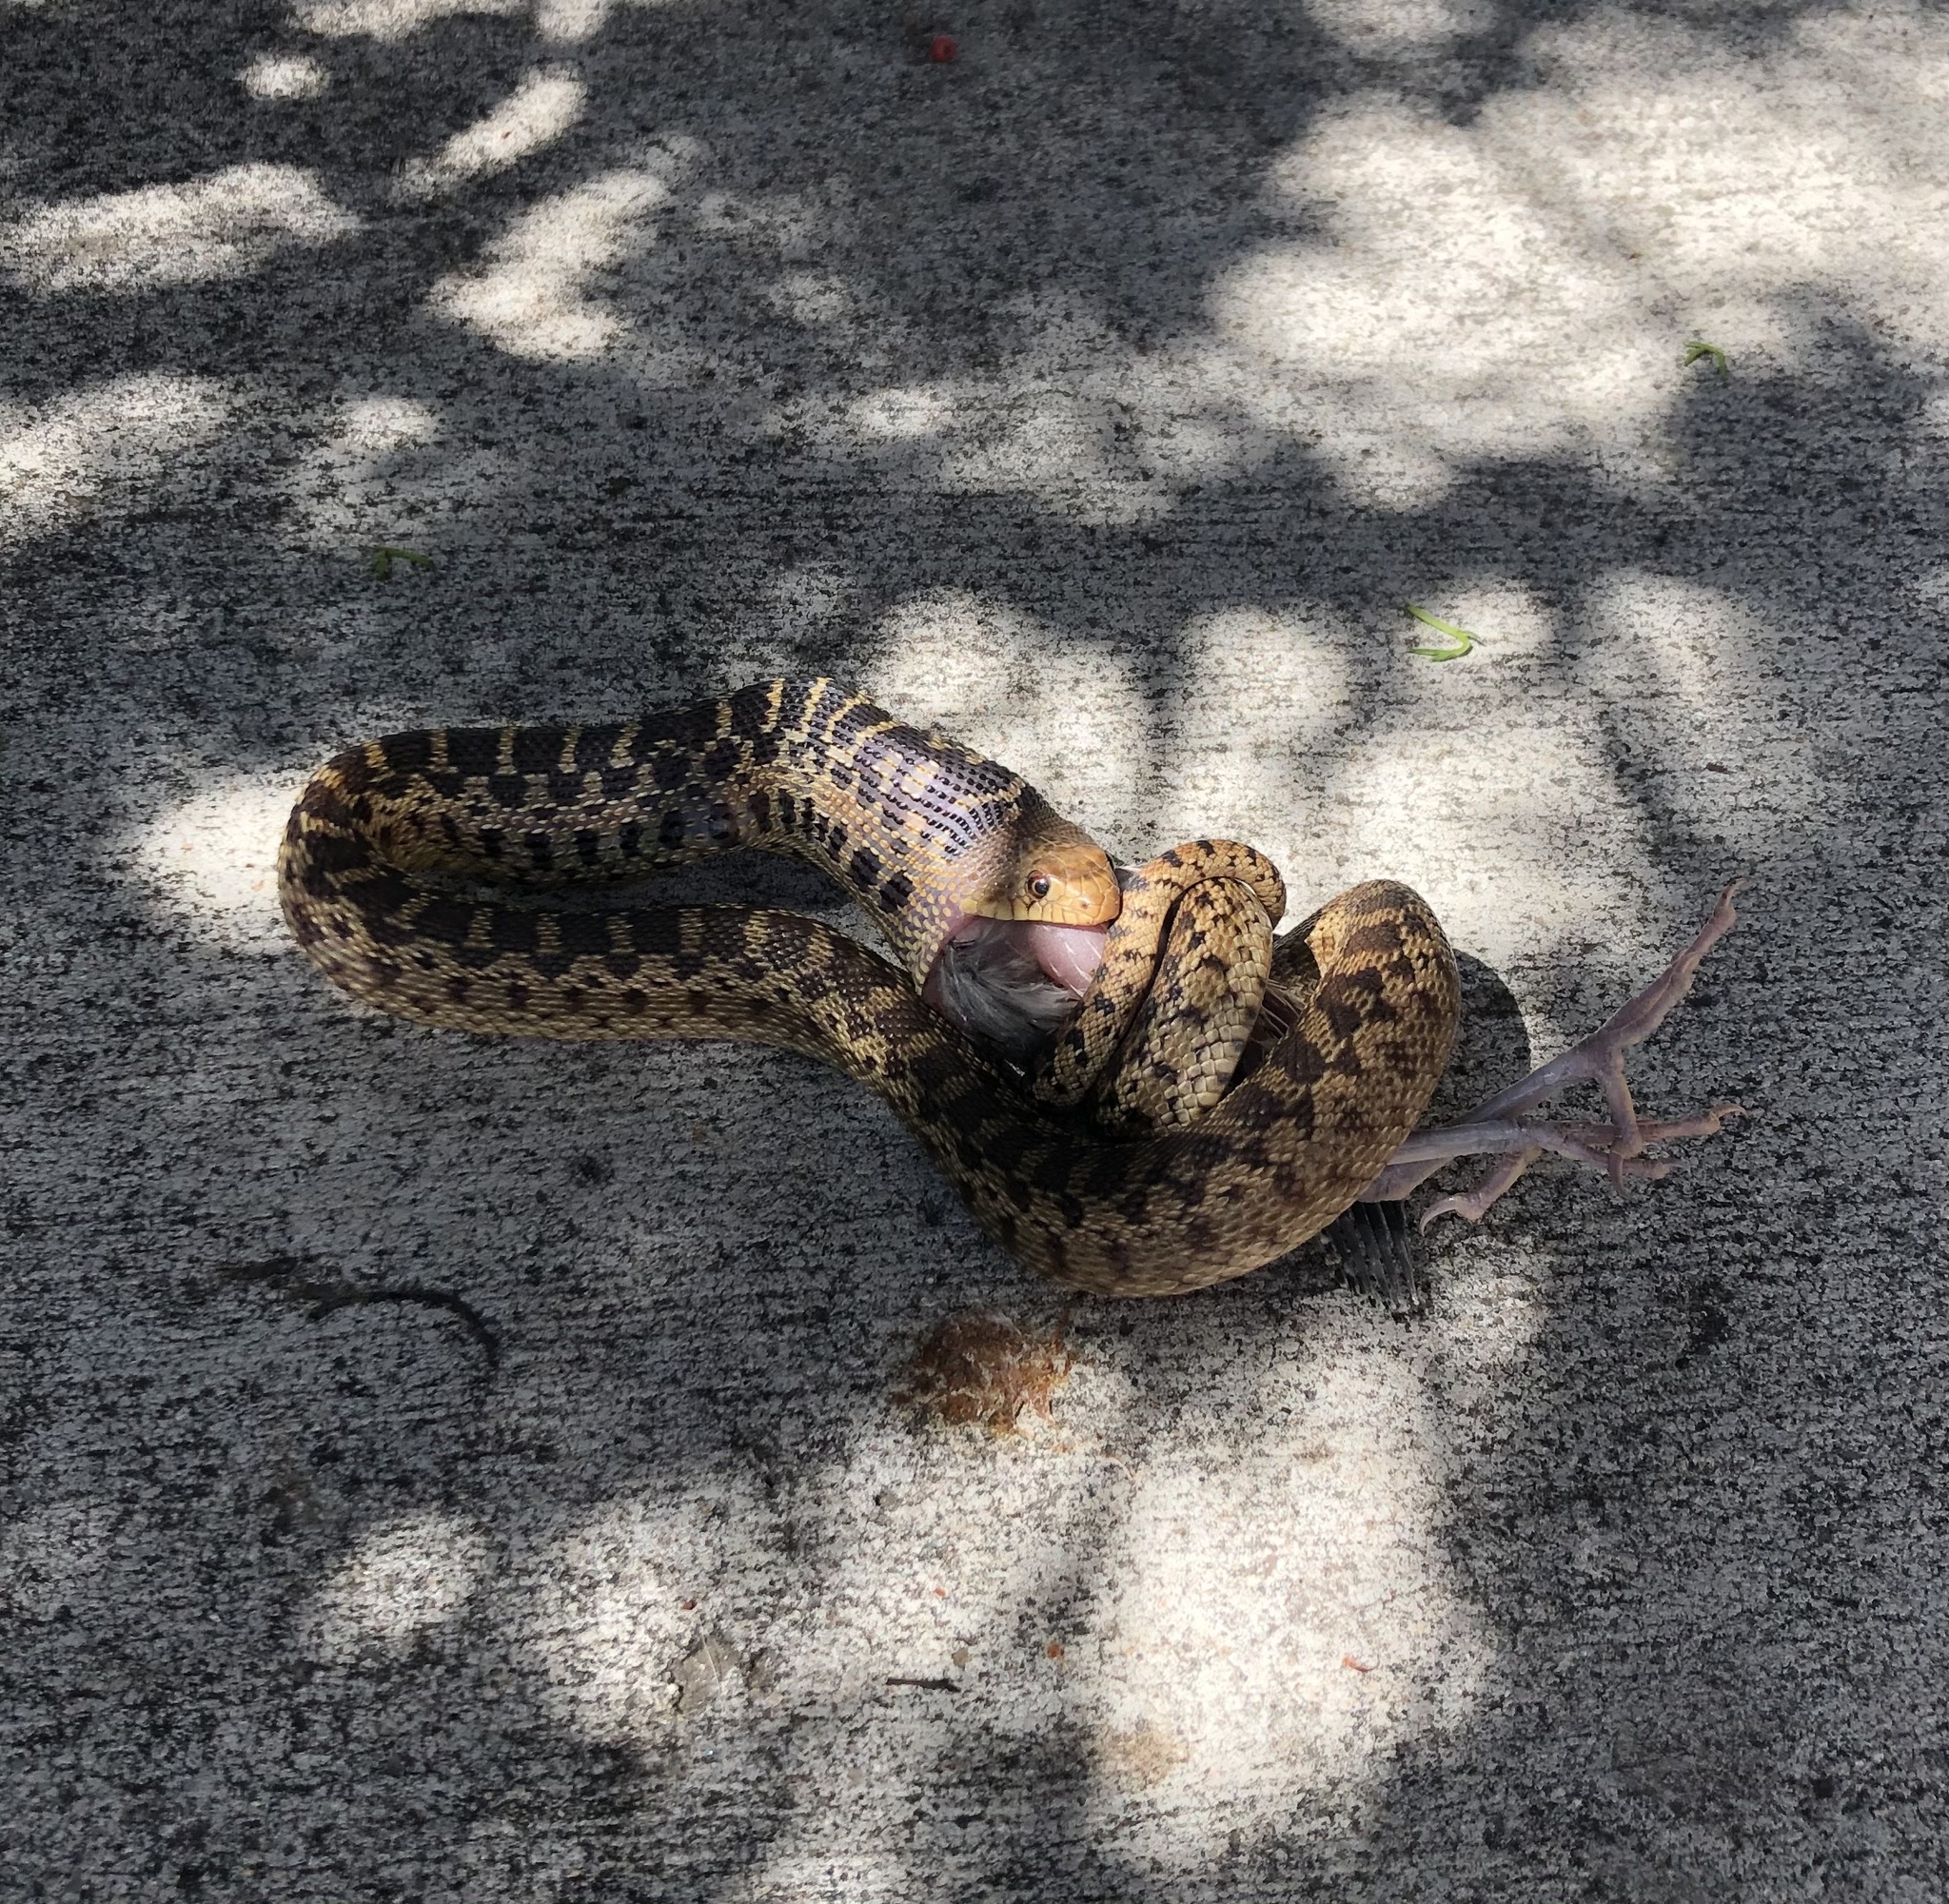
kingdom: Animalia
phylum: Chordata
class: Squamata
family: Colubridae
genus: Pituophis
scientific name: Pituophis catenifer
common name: Gopher snake
